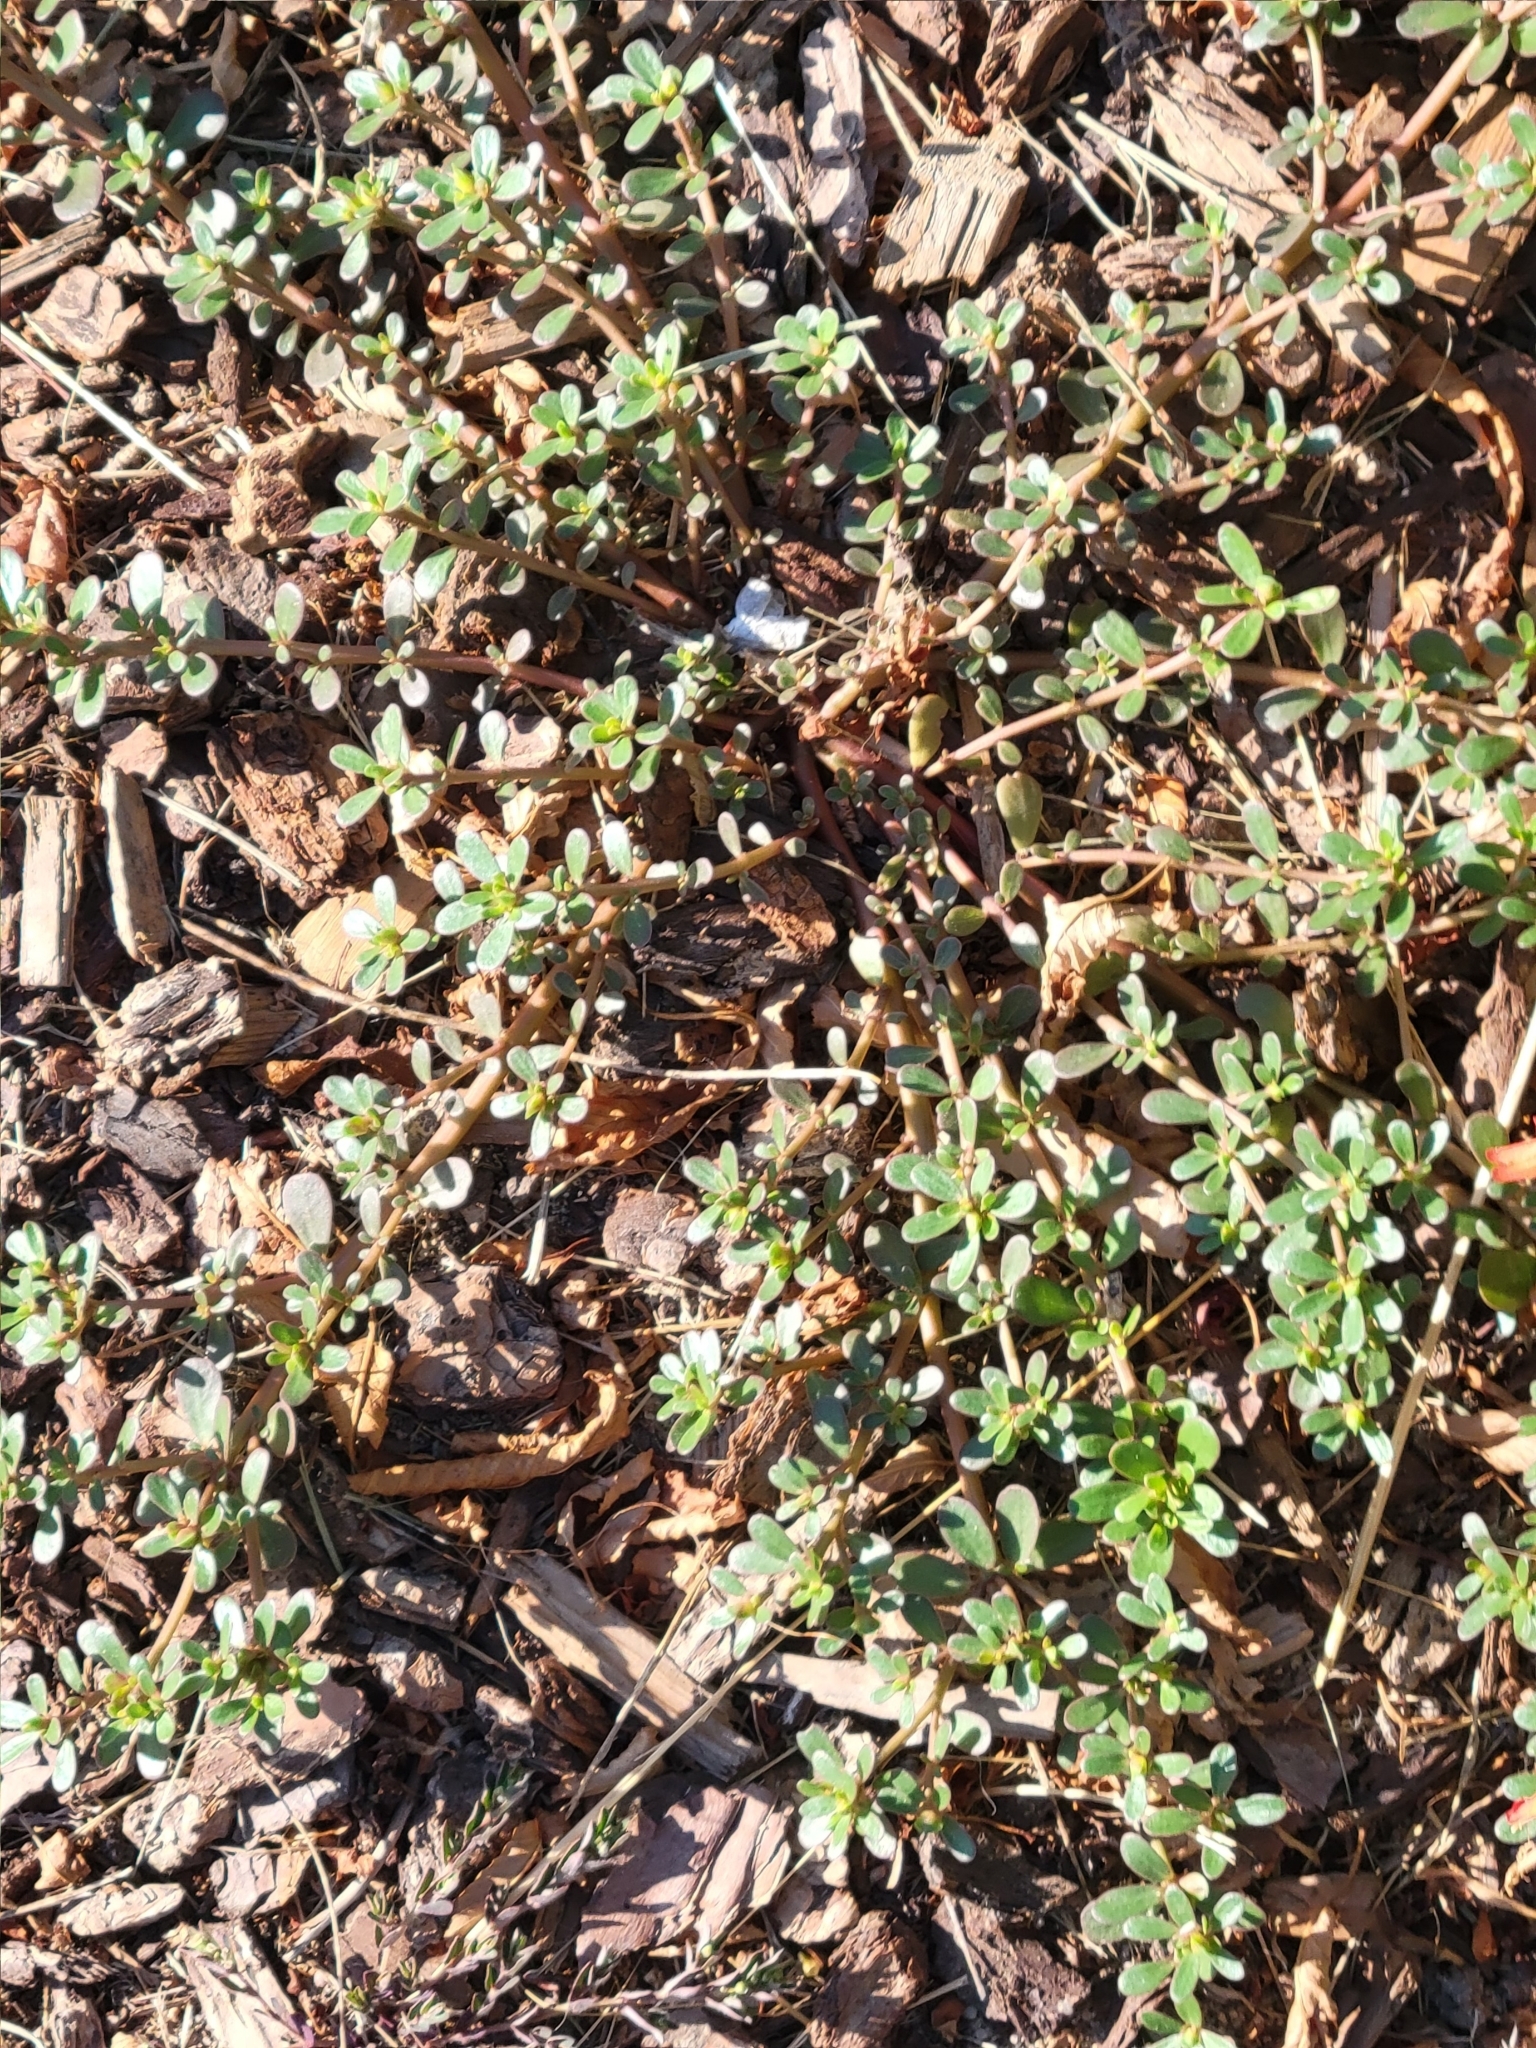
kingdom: Plantae
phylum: Tracheophyta
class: Magnoliopsida
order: Caryophyllales
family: Portulacaceae
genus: Portulaca
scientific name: Portulaca oleracea
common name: Common purslane
